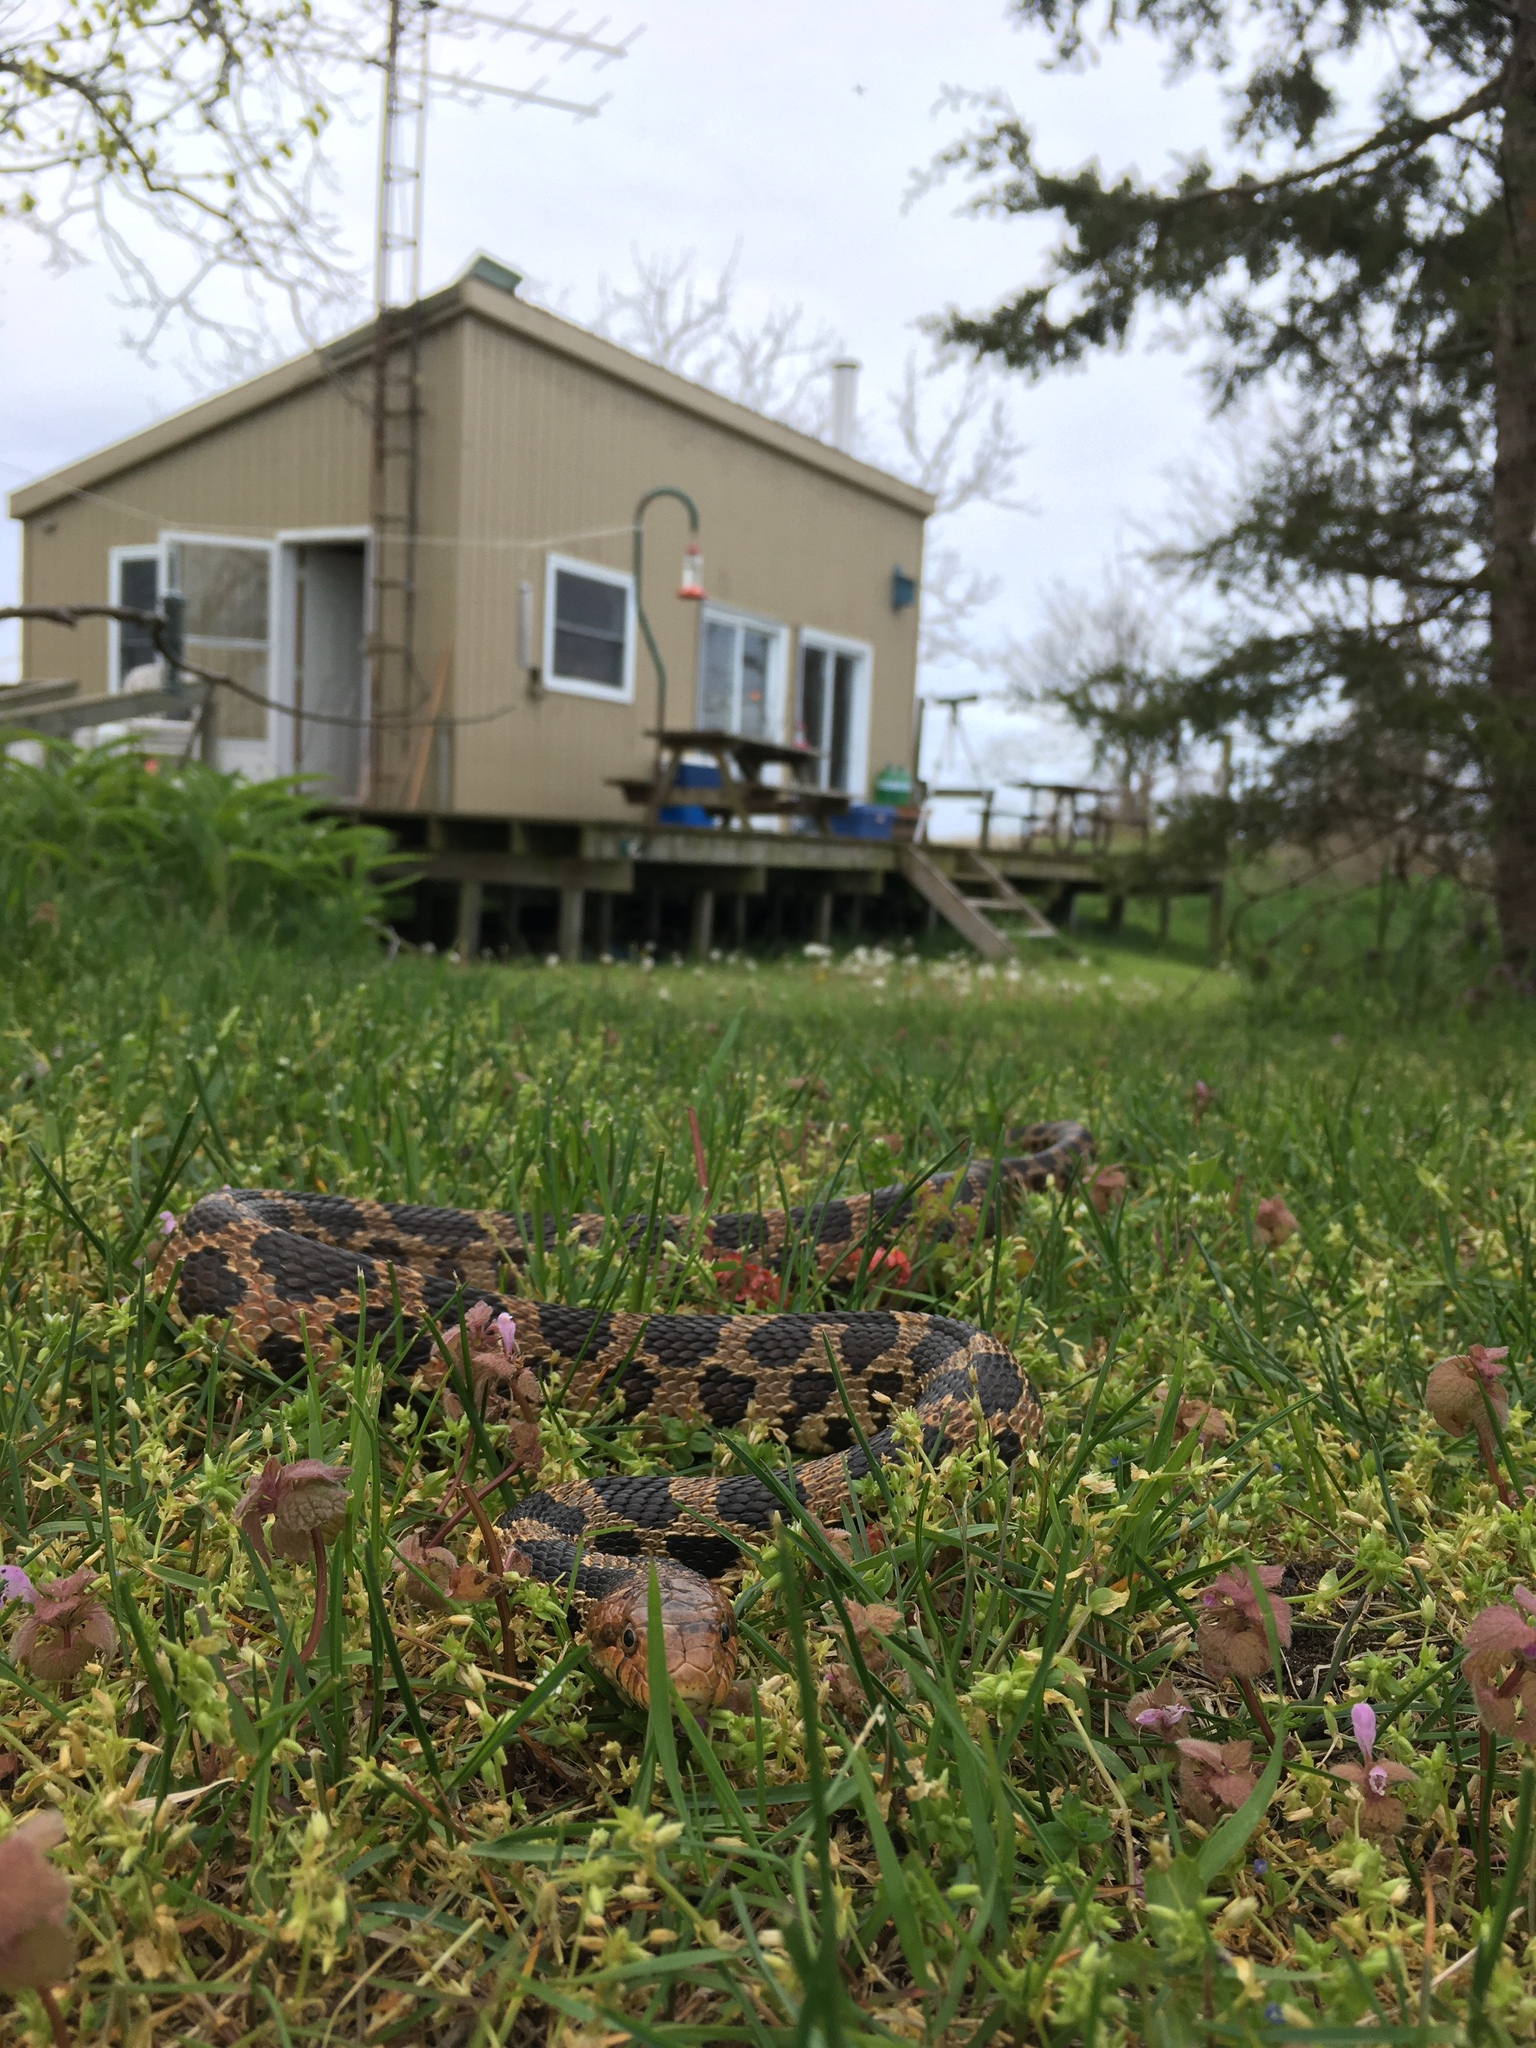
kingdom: Animalia
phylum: Chordata
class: Squamata
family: Colubridae
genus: Pantherophis
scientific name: Pantherophis vulpinus
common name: Eastern fox snake
